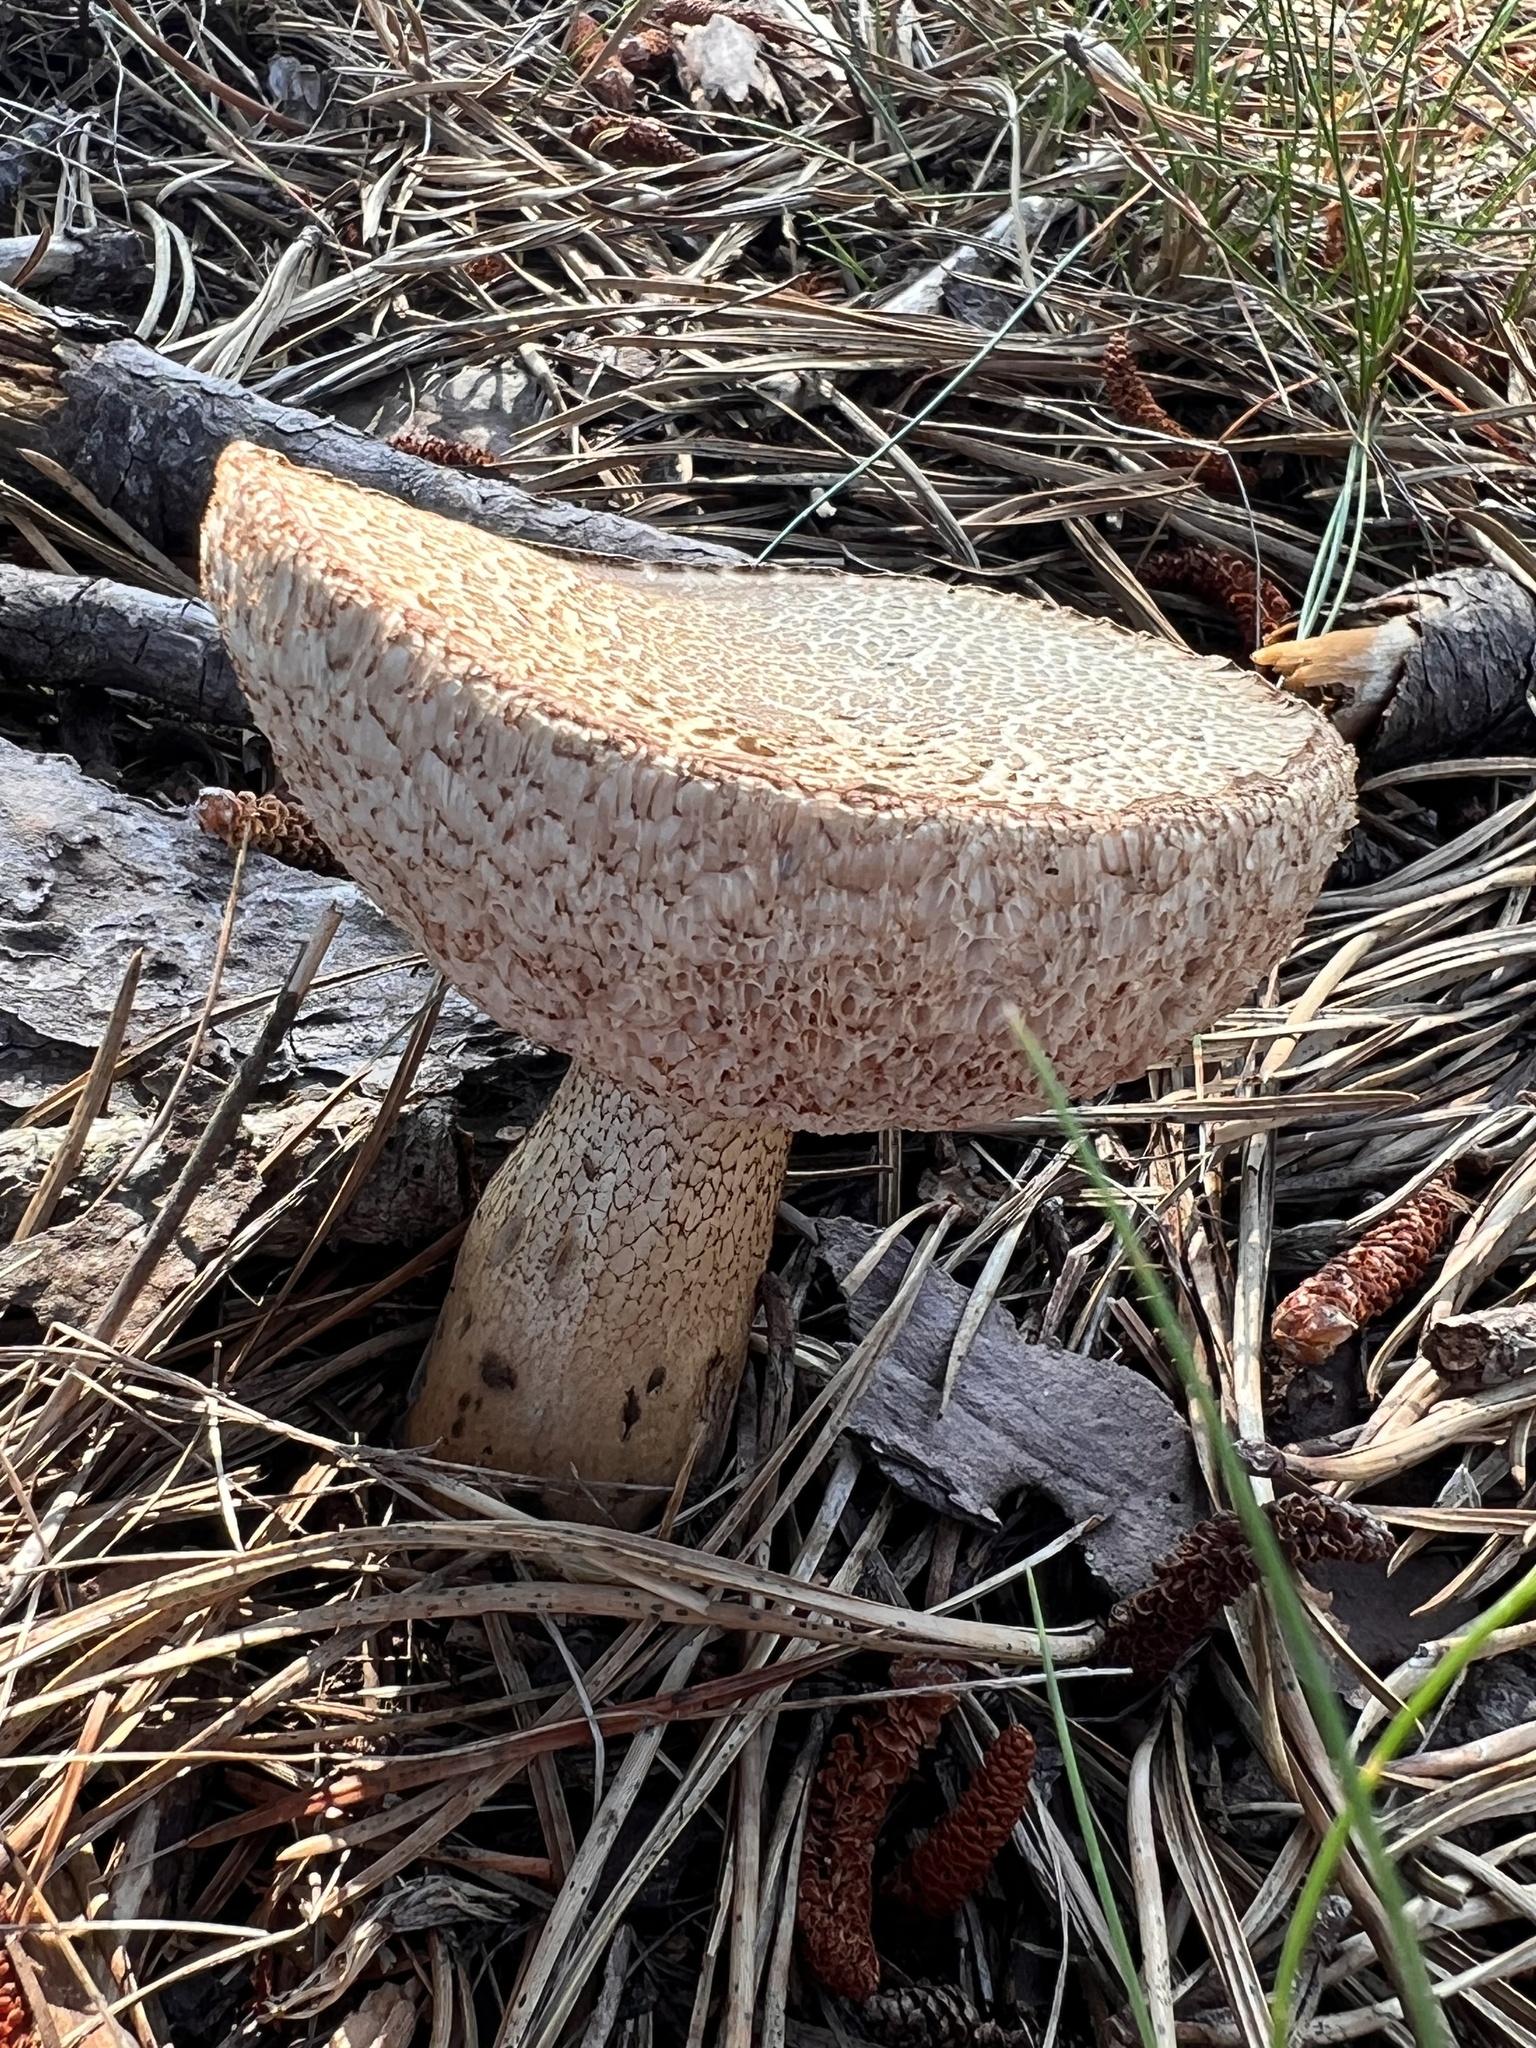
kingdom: Fungi
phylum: Basidiomycota
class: Agaricomycetes
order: Boletales
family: Boletaceae
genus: Tylopilus
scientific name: Tylopilus felleus
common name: Bitter bolete
